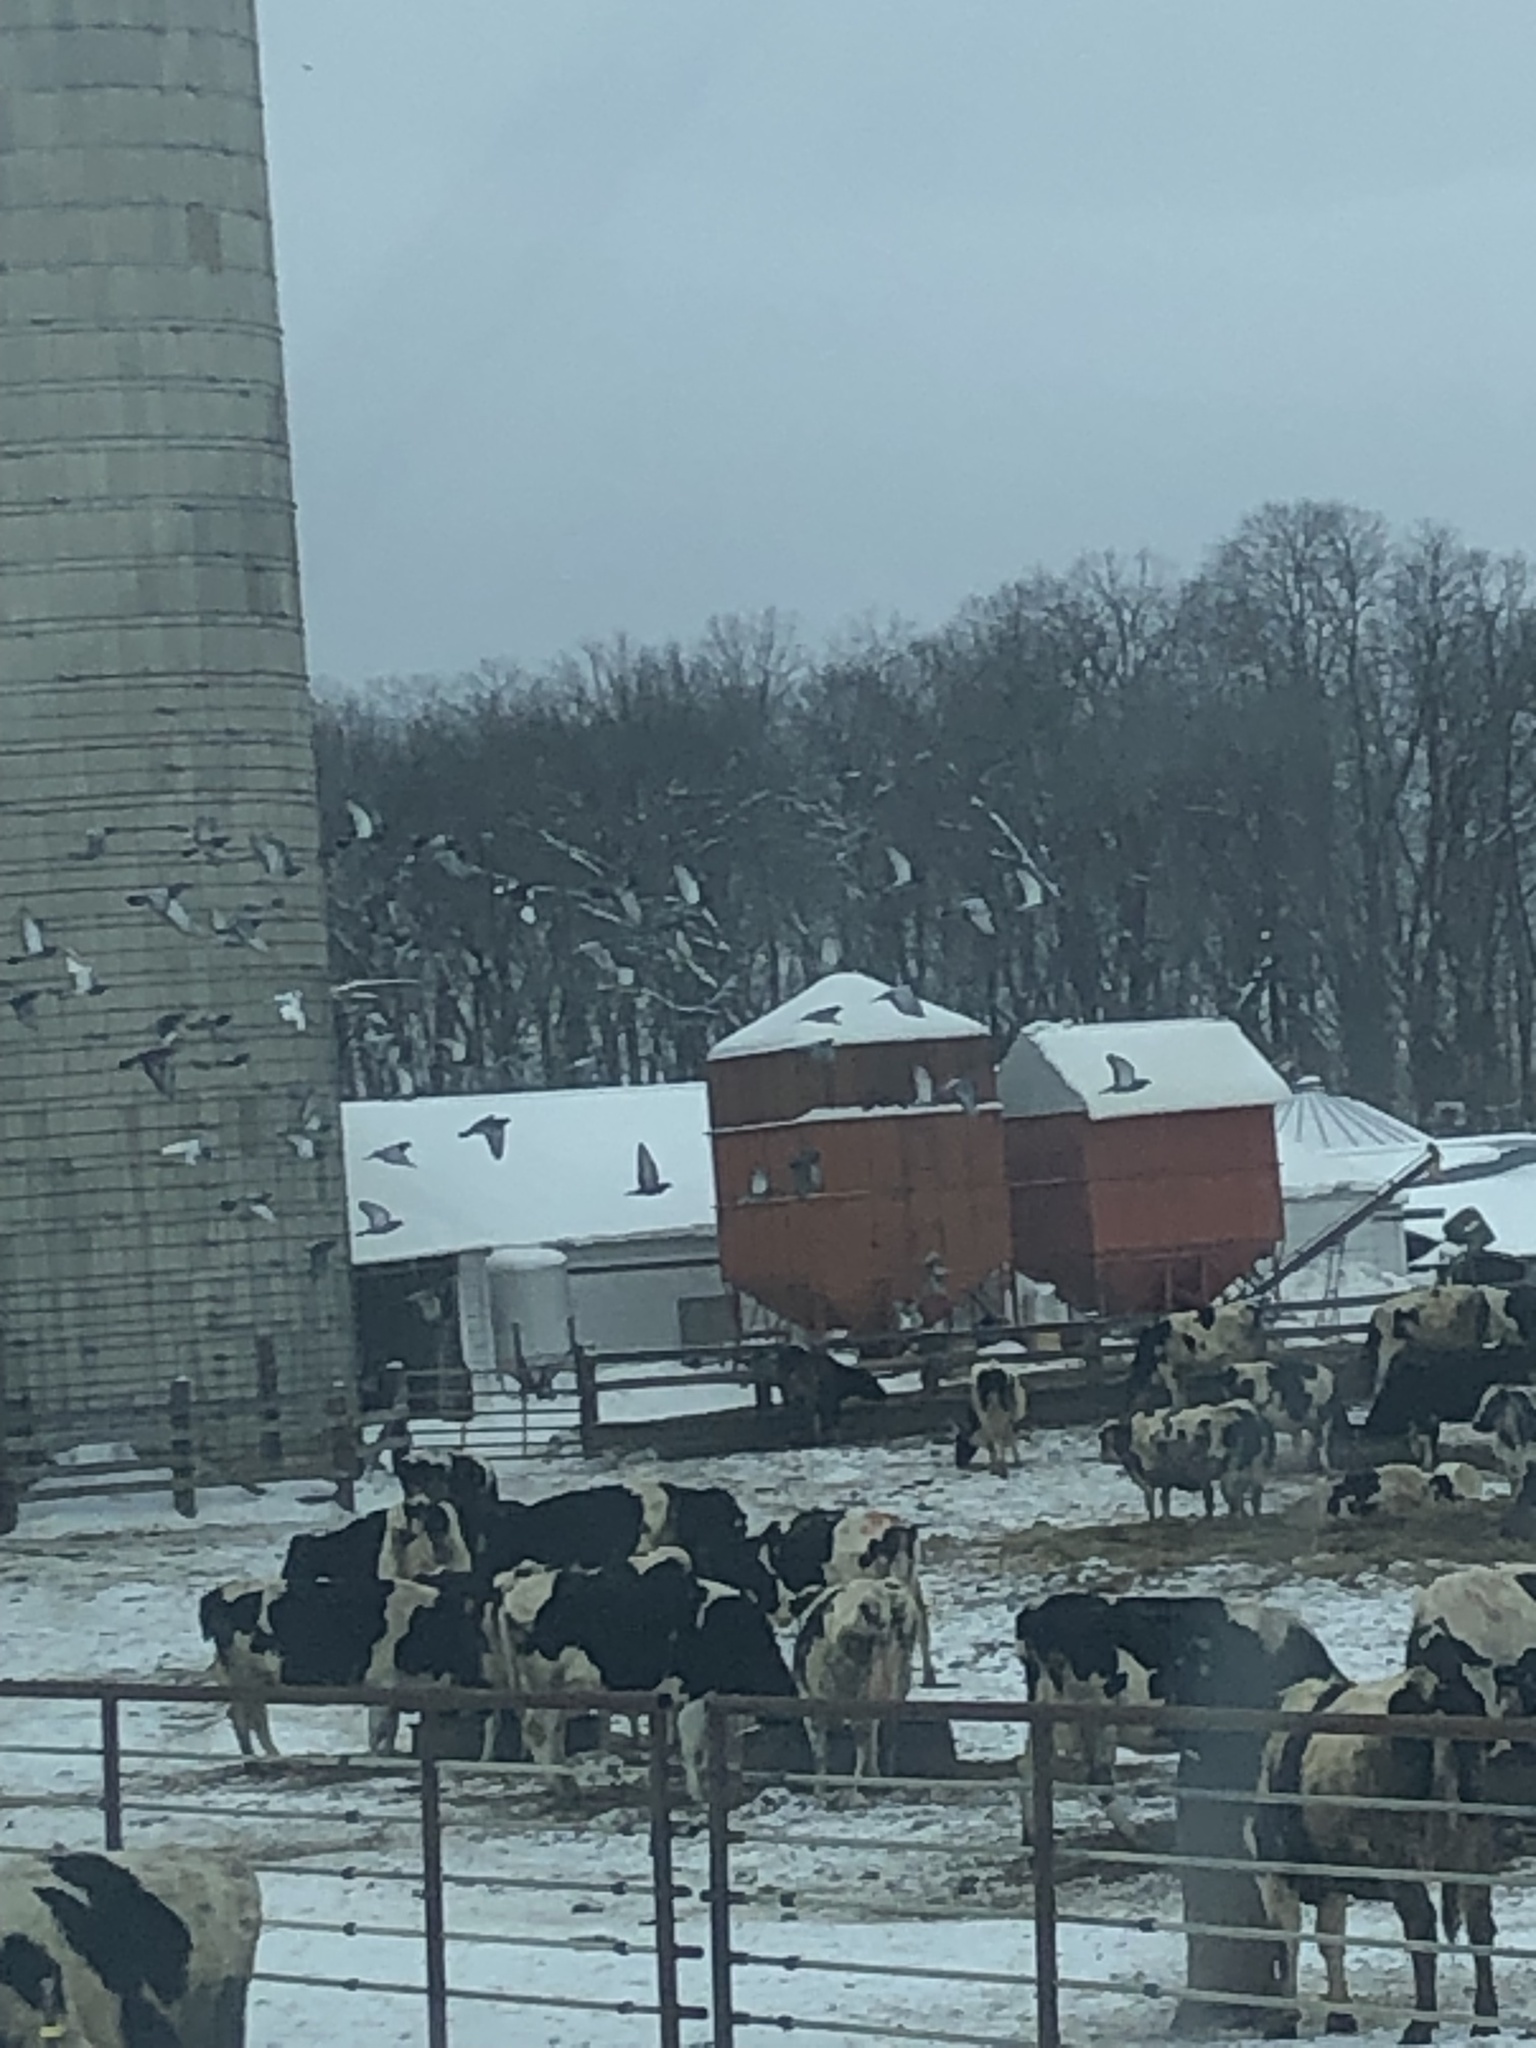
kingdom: Animalia
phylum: Chordata
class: Aves
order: Columbiformes
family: Columbidae
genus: Columba
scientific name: Columba livia
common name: Rock pigeon
